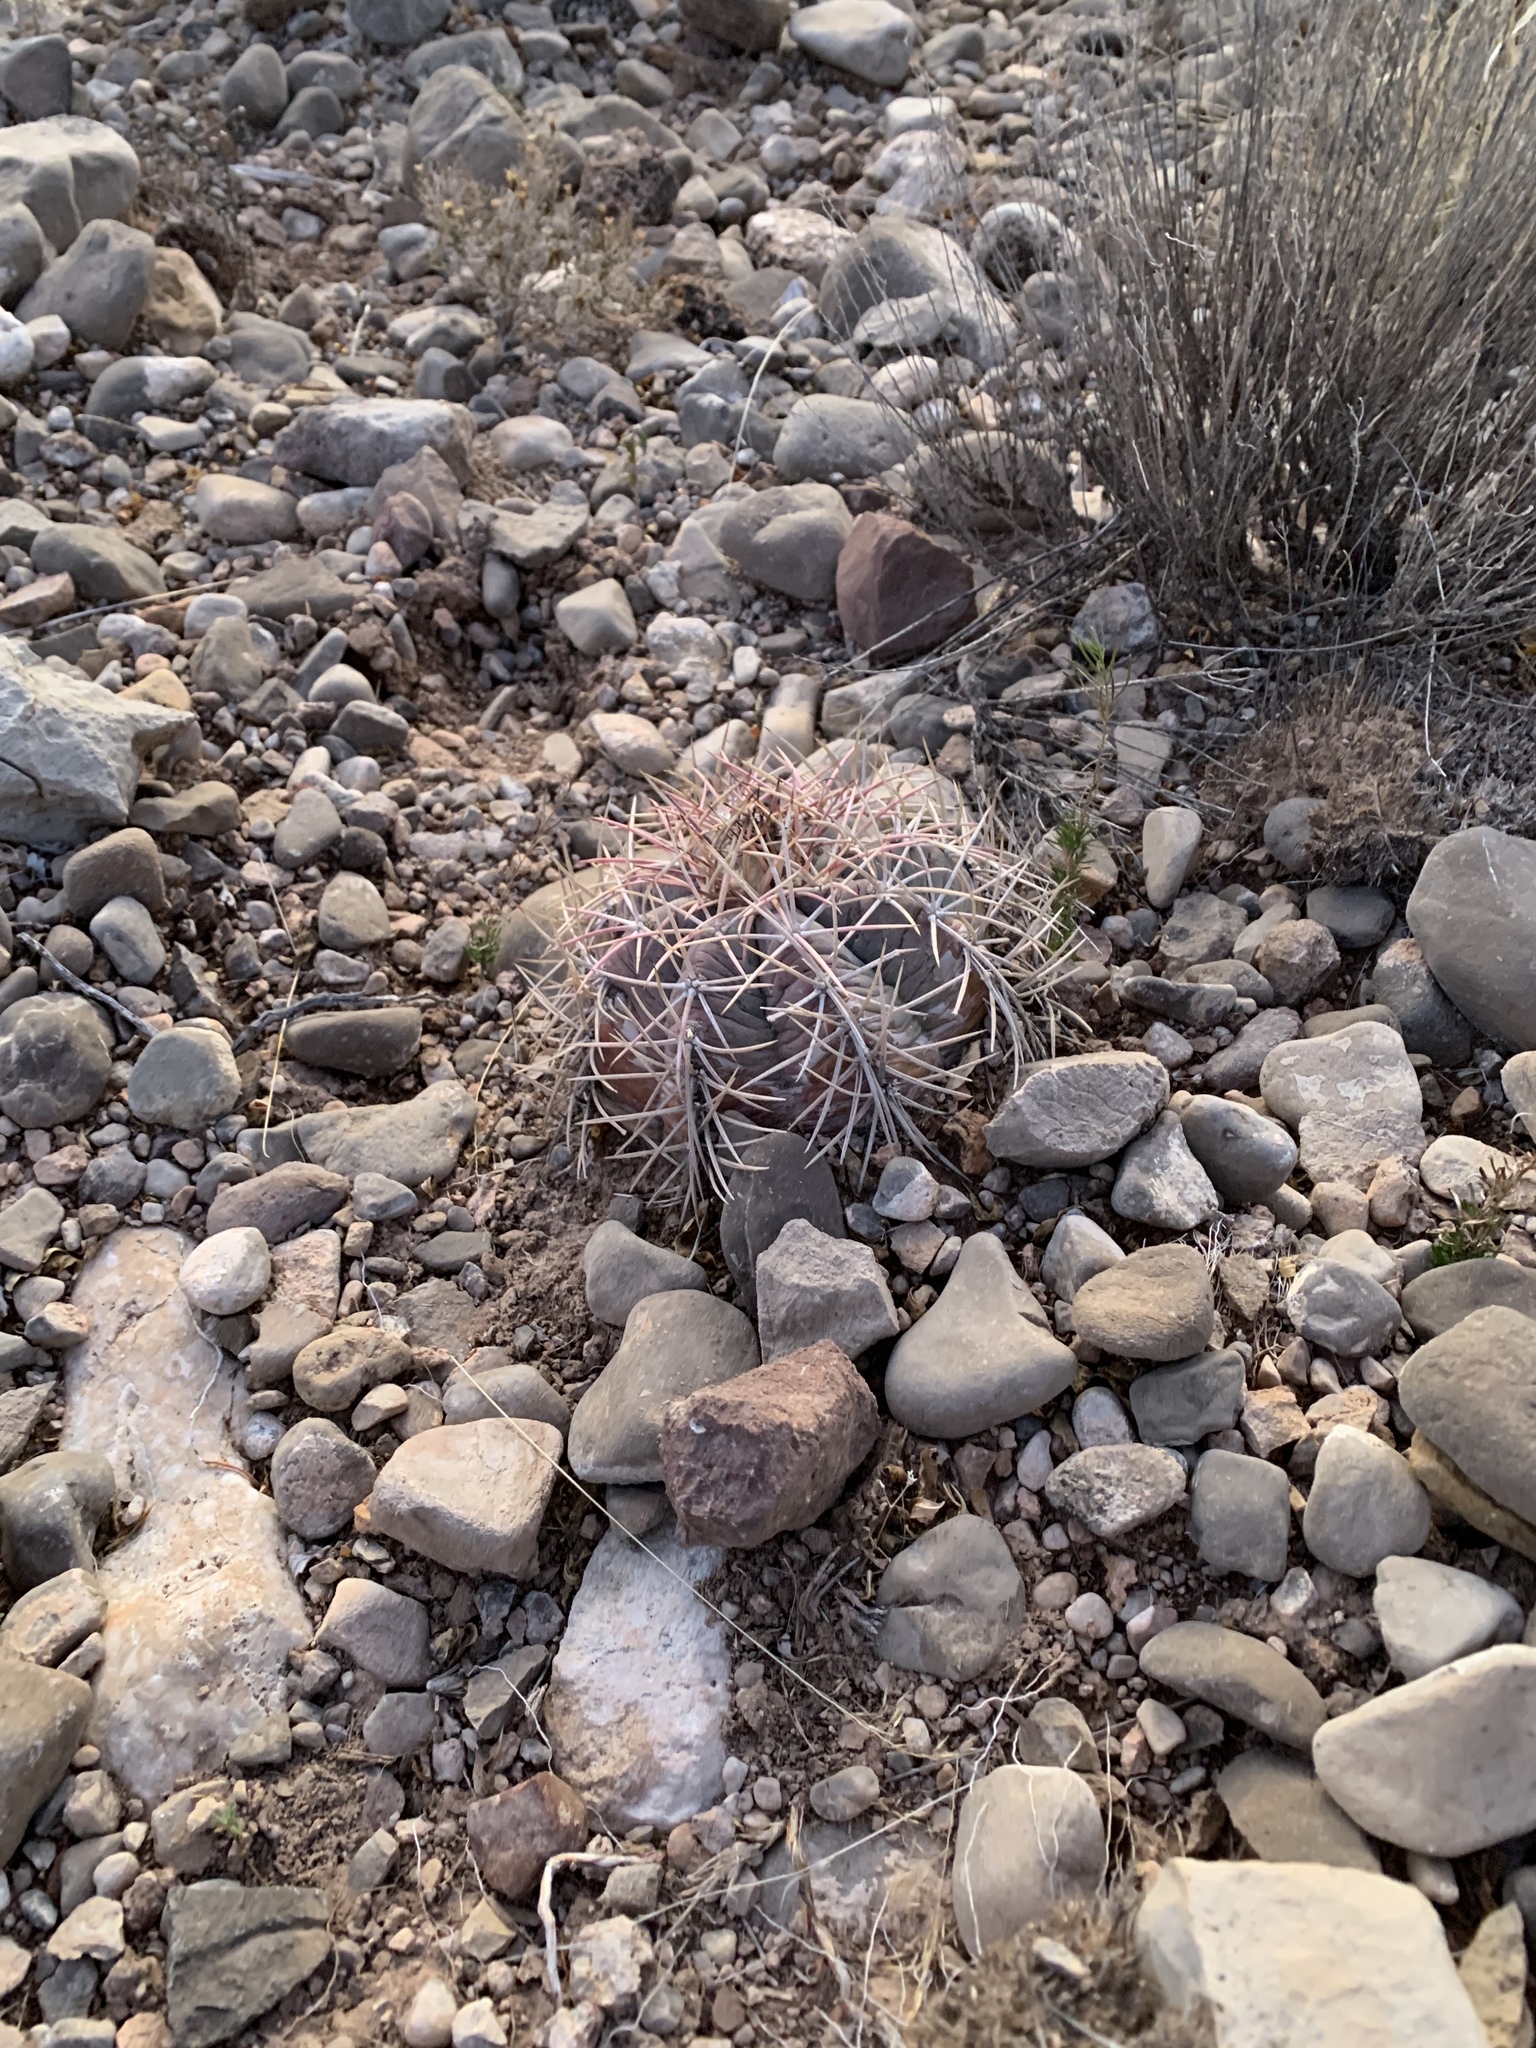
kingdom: Plantae
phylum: Tracheophyta
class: Magnoliopsida
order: Caryophyllales
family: Cactaceae
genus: Echinocactus
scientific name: Echinocactus horizonthalonius
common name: Devilshead
